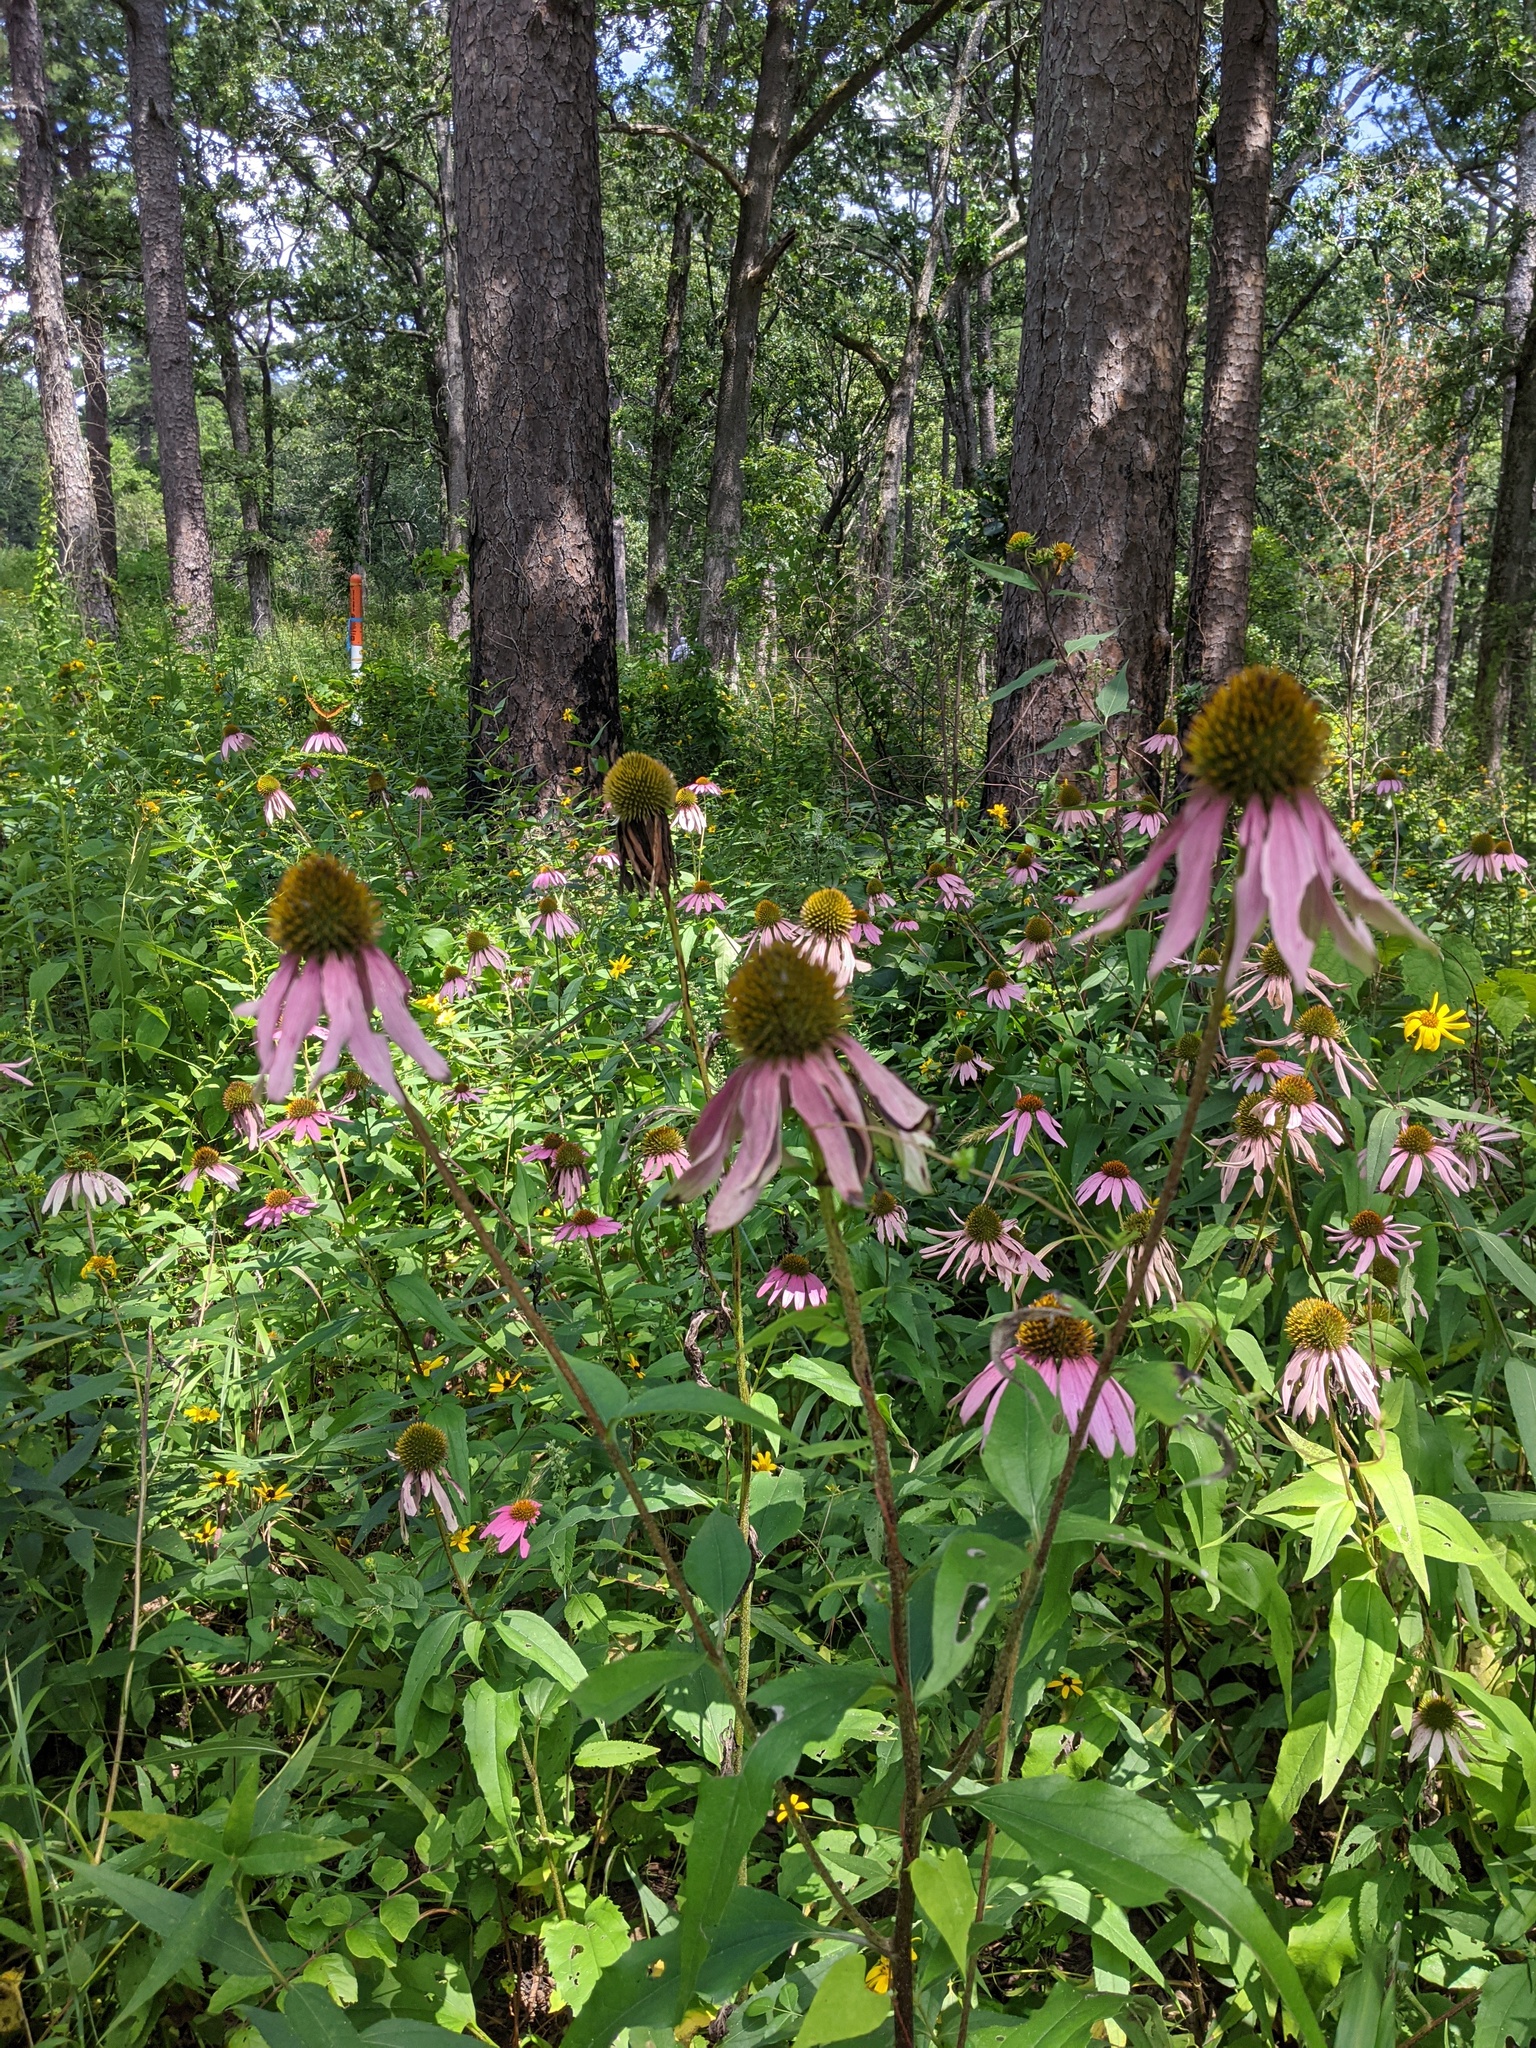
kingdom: Plantae
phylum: Tracheophyta
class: Magnoliopsida
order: Asterales
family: Asteraceae
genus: Echinacea
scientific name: Echinacea purpurea
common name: Broad-leaved purple coneflower
